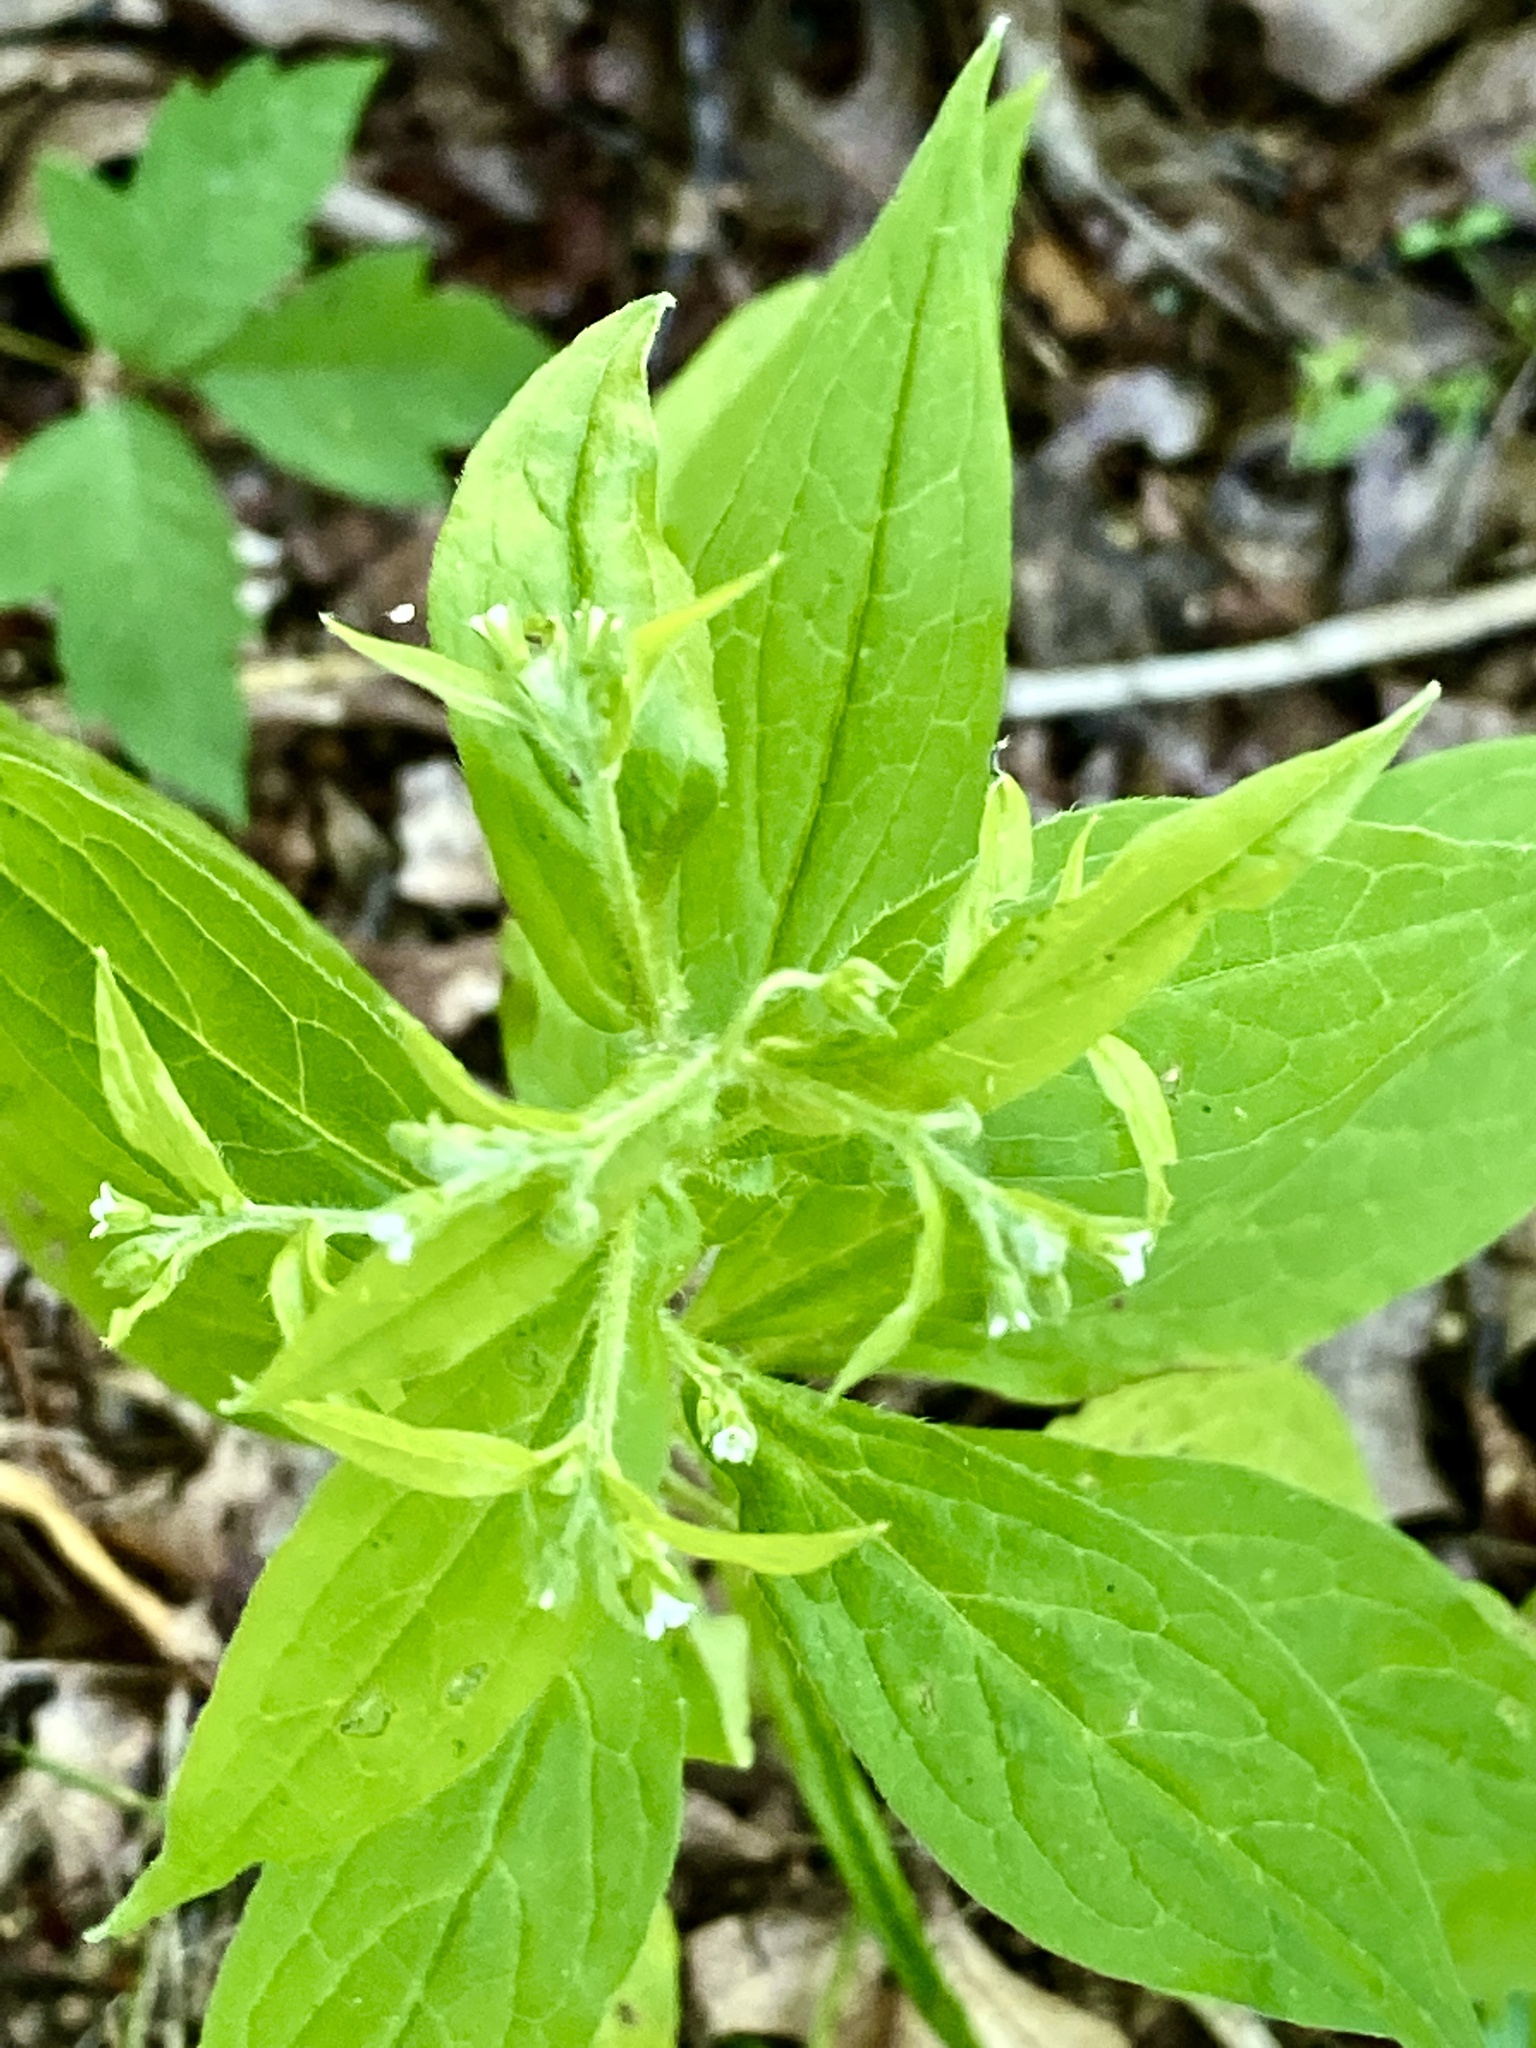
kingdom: Plantae
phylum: Tracheophyta
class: Magnoliopsida
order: Boraginales
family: Boraginaceae
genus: Hackelia
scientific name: Hackelia virginiana
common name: Beggar's-lice
